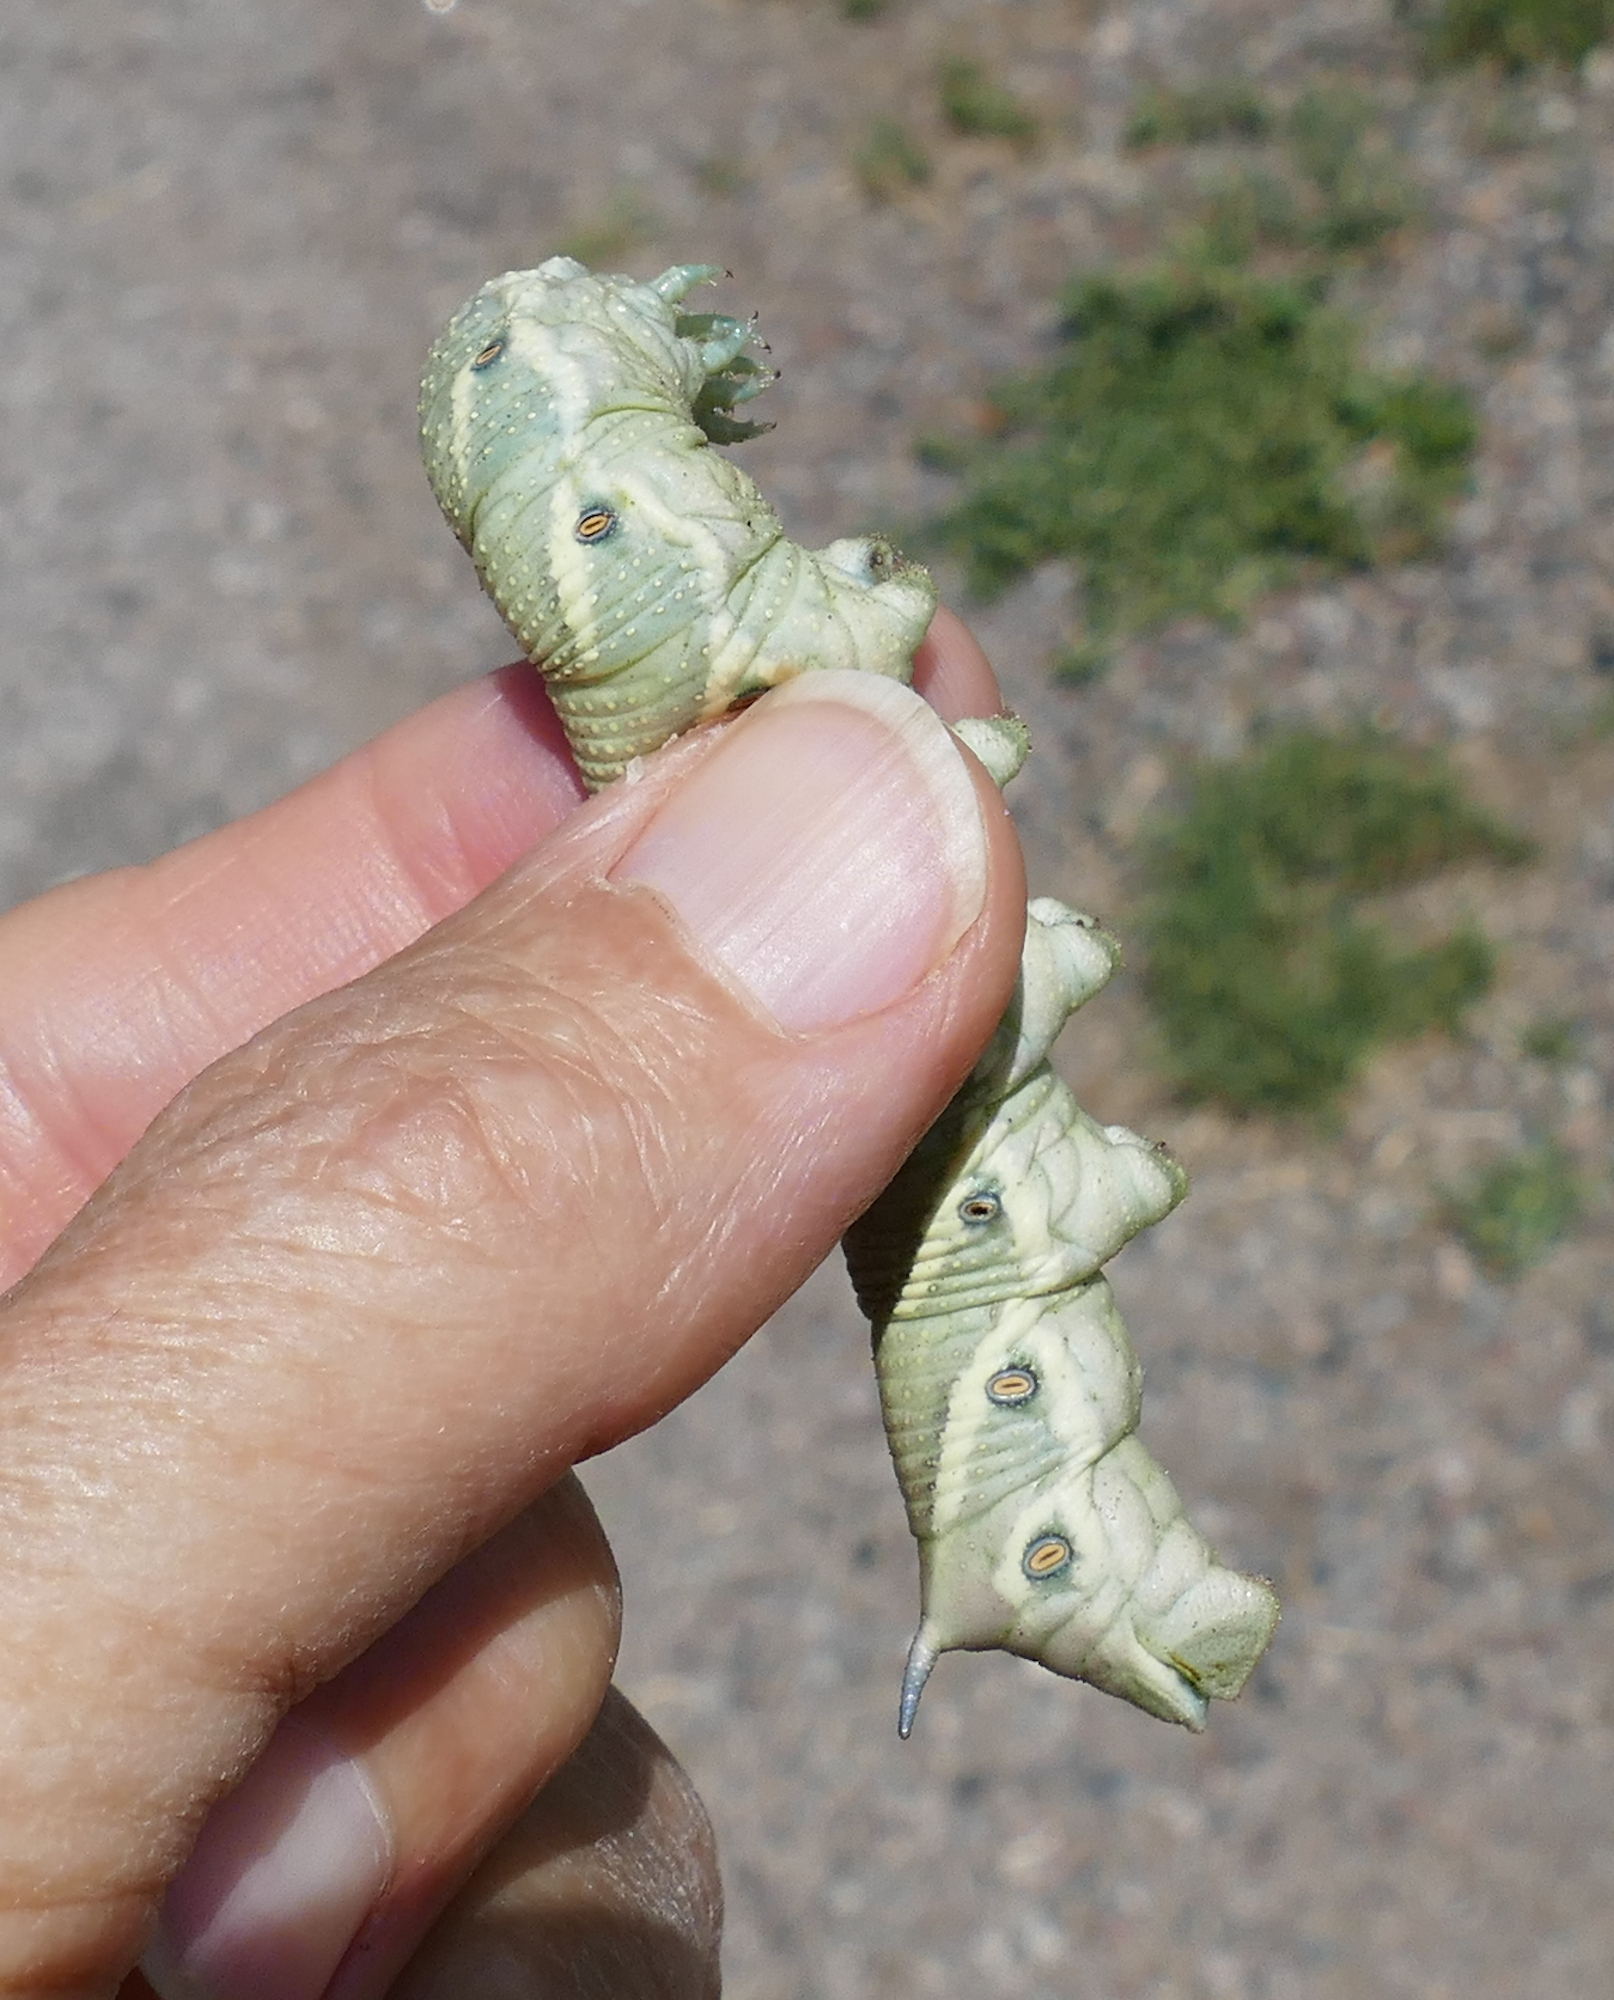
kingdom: Animalia
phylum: Arthropoda
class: Insecta
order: Lepidoptera
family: Sphingidae
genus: Manduca
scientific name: Manduca quinquemaculatus
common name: Five-spotted hawk-moth
